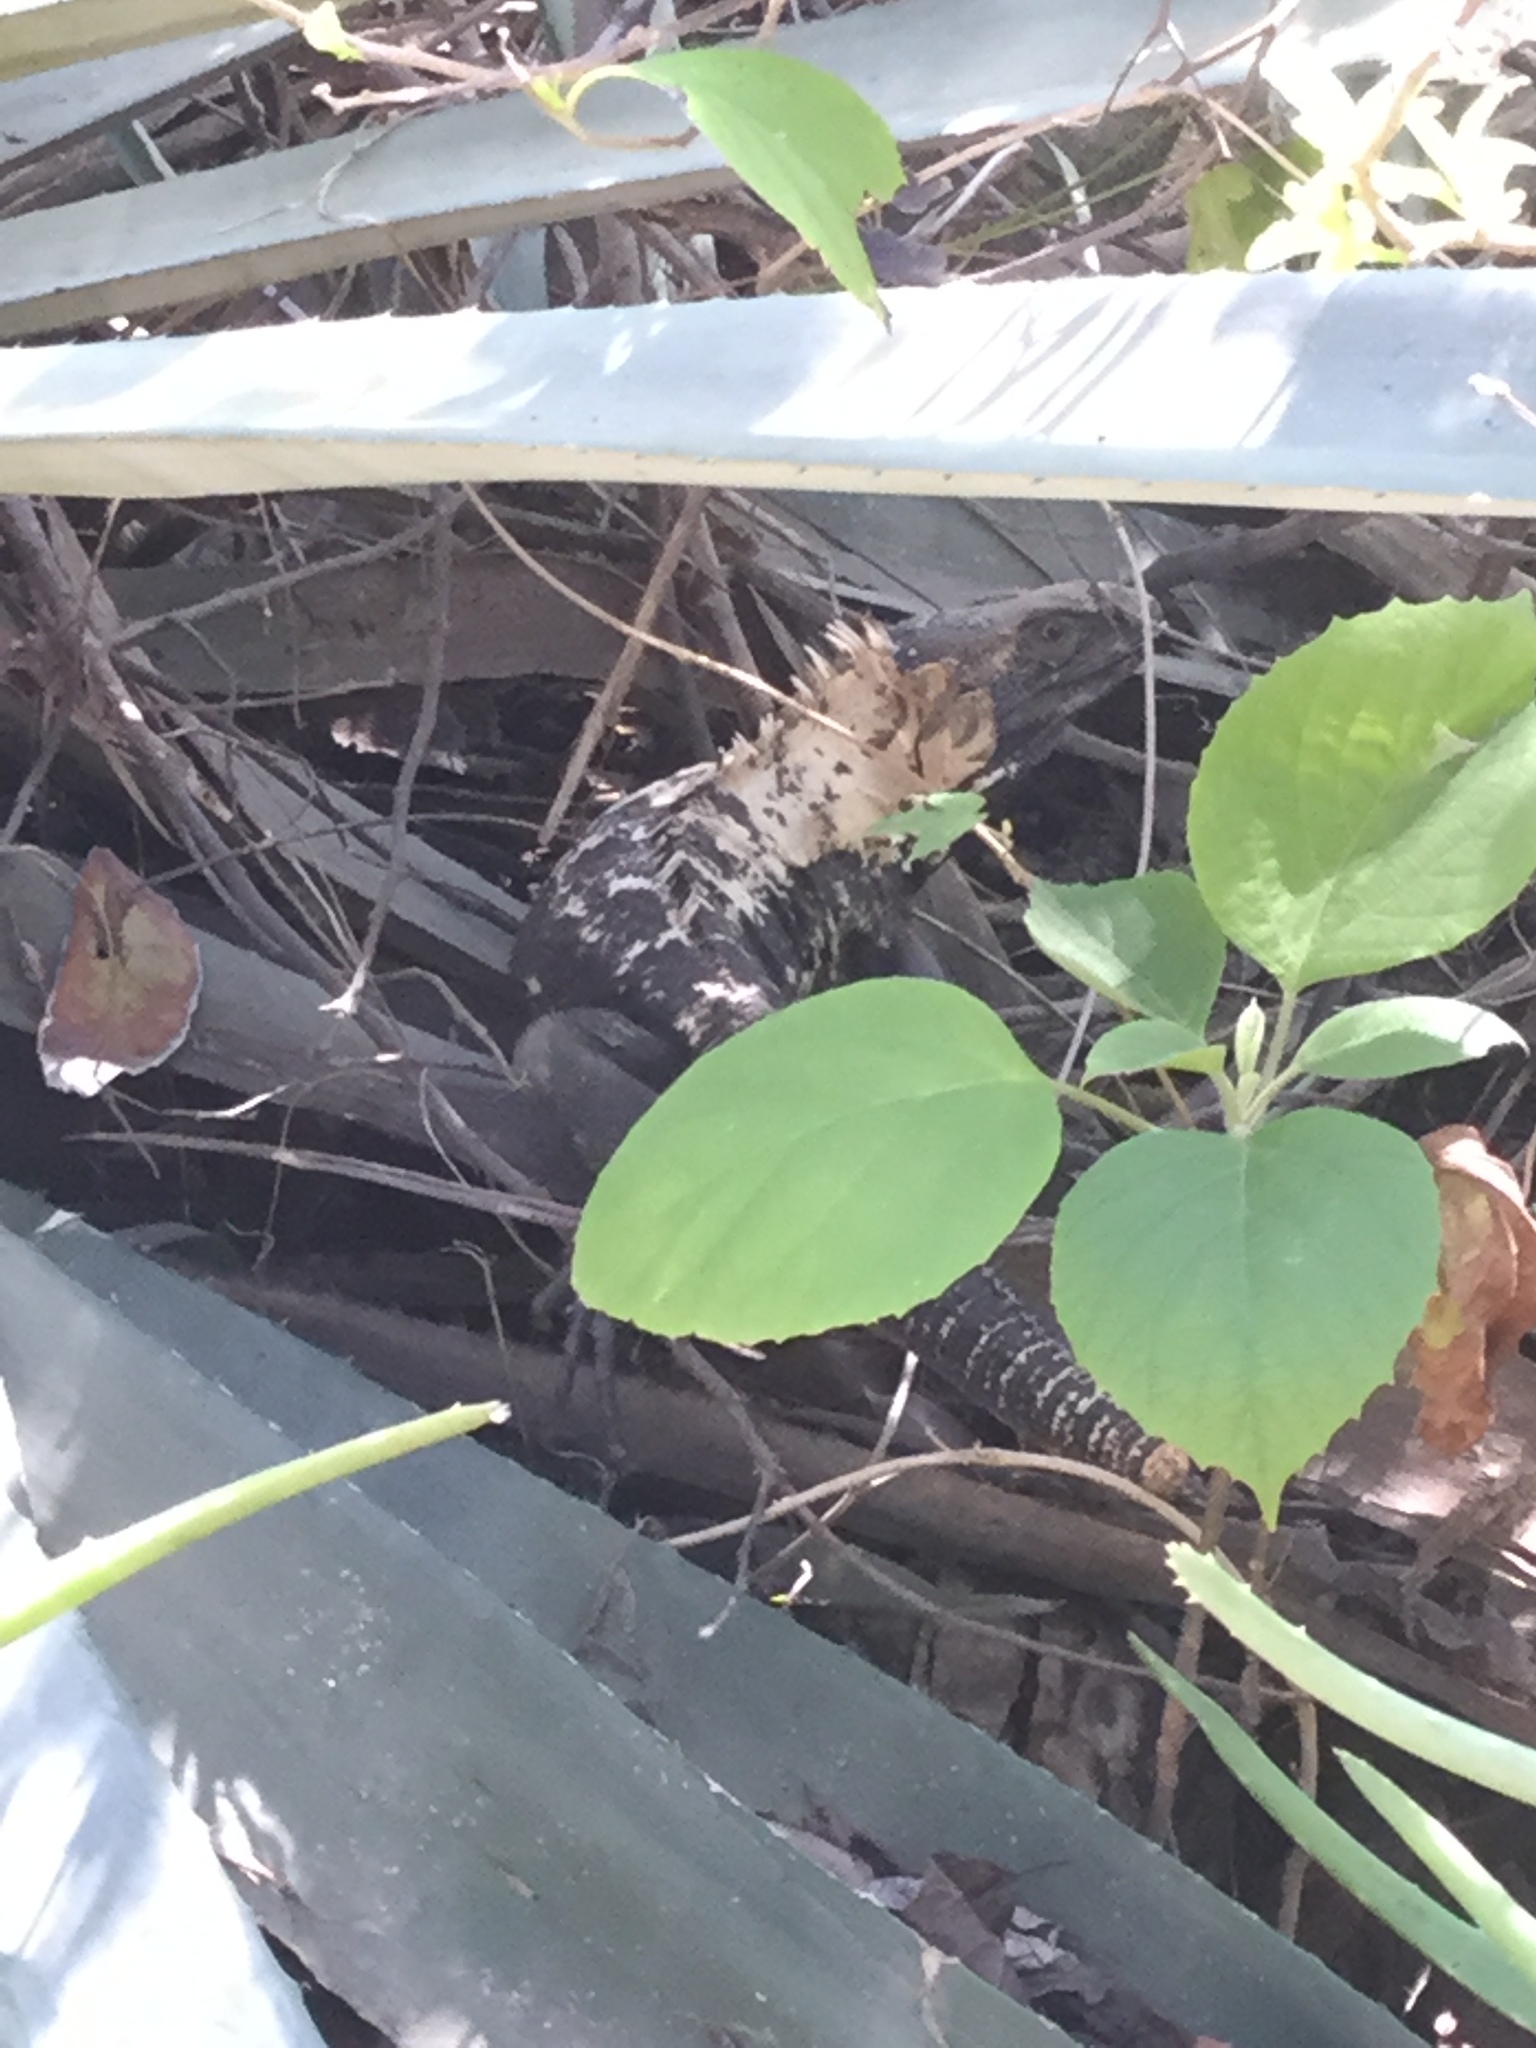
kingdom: Animalia
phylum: Chordata
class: Squamata
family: Iguanidae
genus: Ctenosaura
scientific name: Ctenosaura pectinata
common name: Guerreran spiny-tailed iguana
